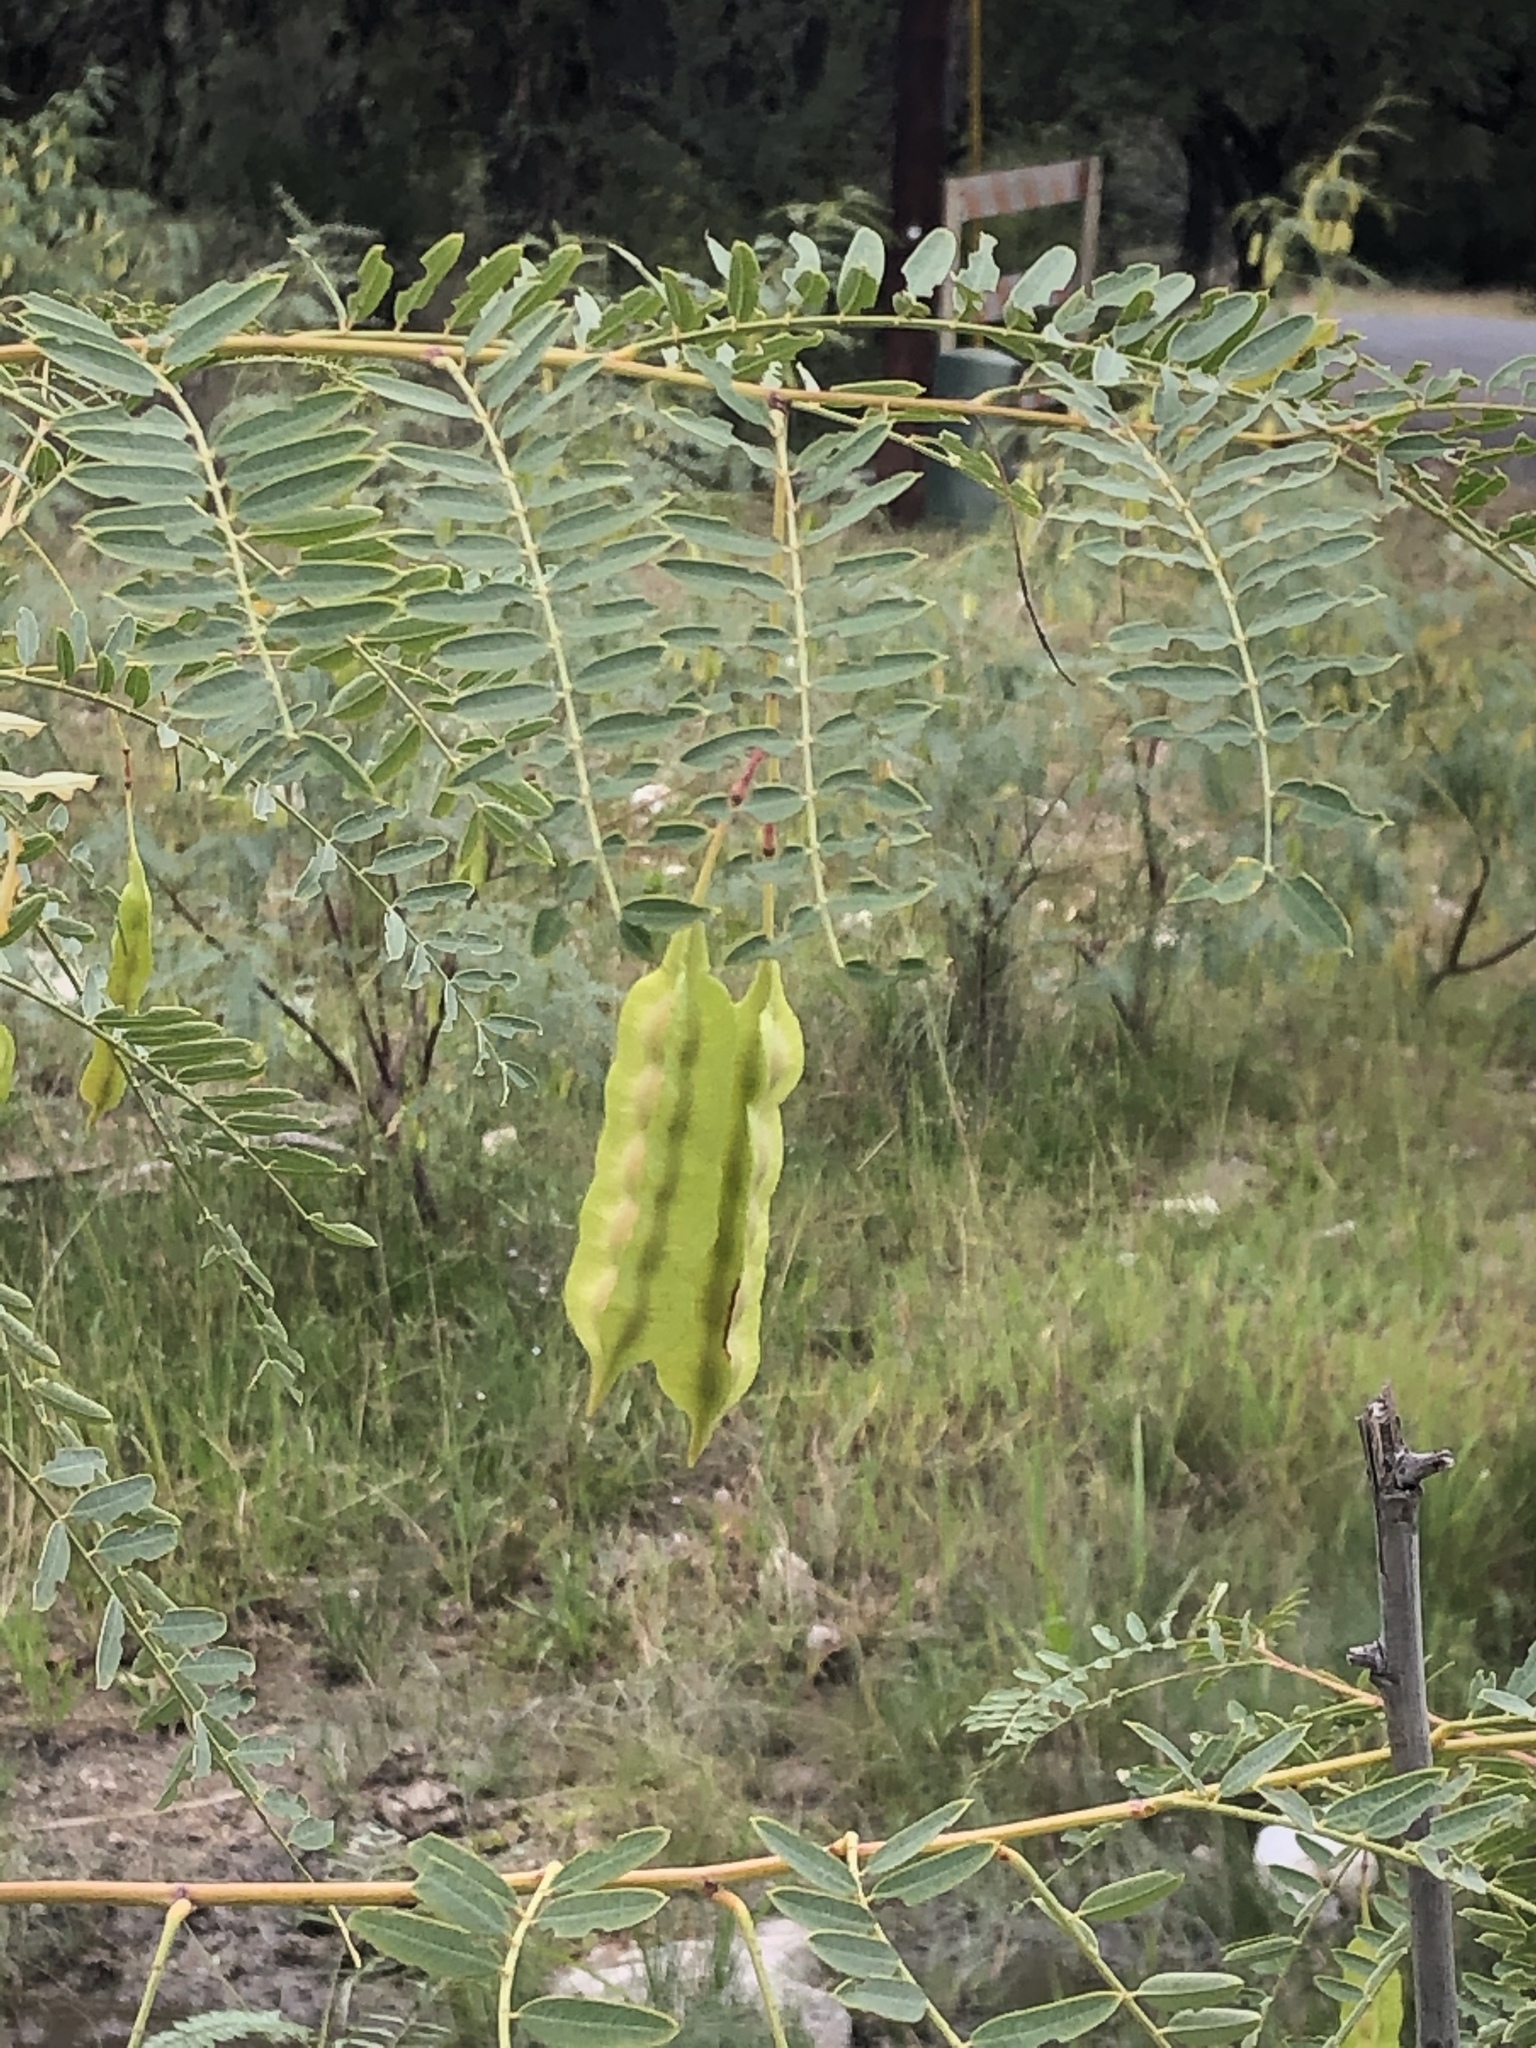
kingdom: Plantae
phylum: Tracheophyta
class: Magnoliopsida
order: Fabales
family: Fabaceae
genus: Sesbania
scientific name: Sesbania drummondii
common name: Poison-bean
